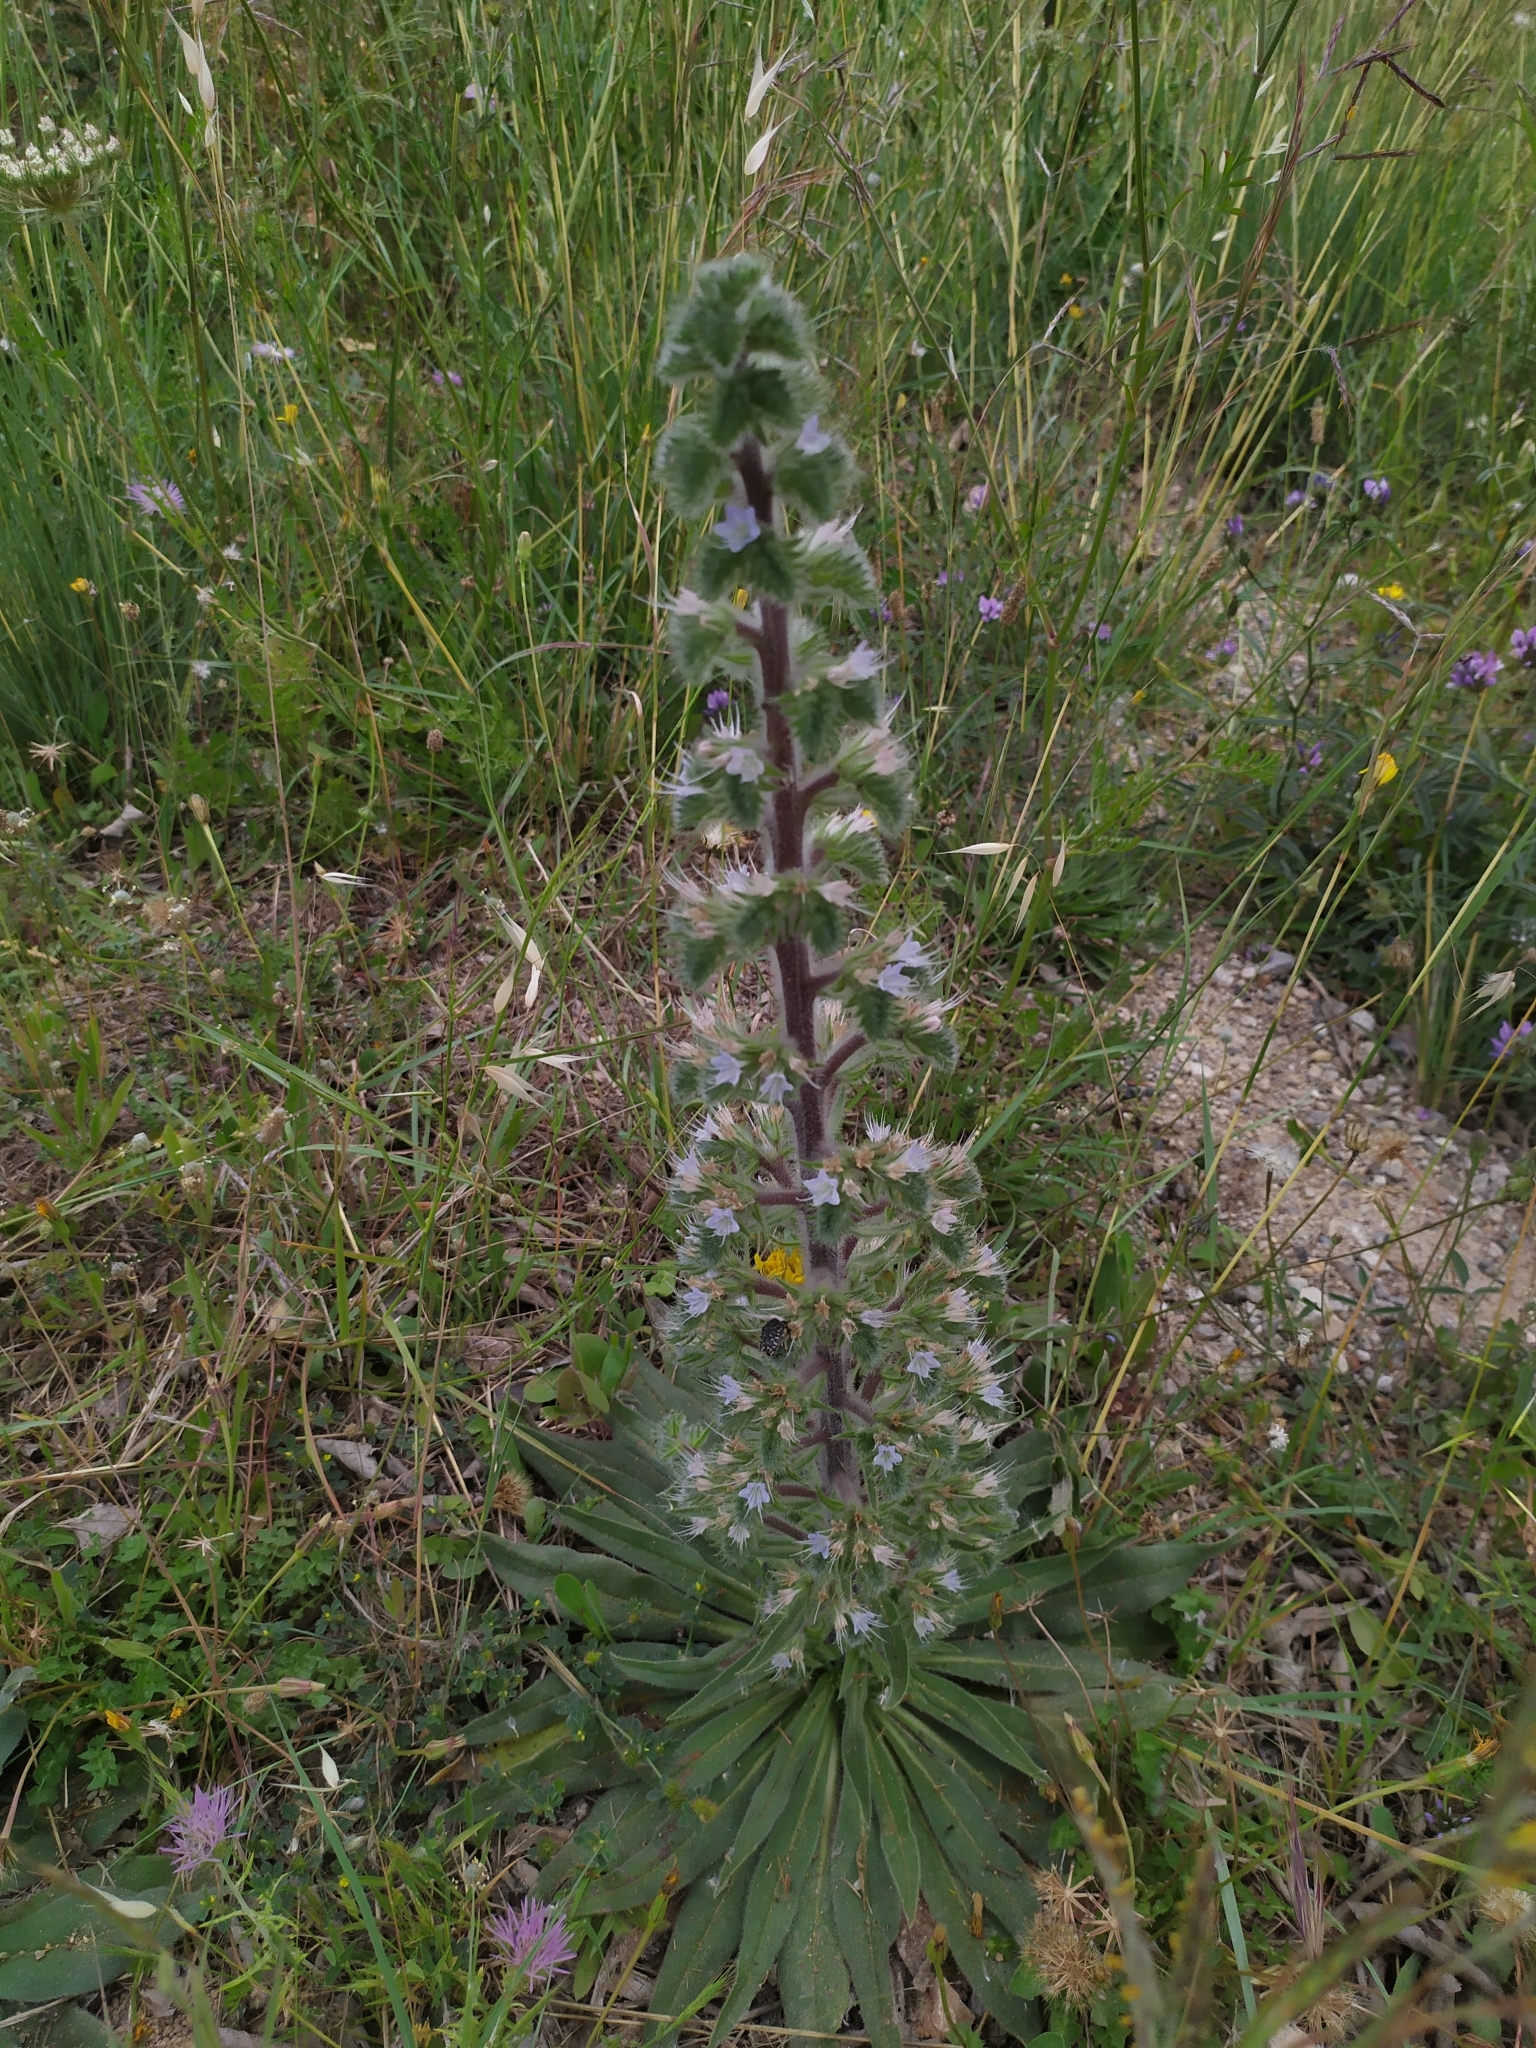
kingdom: Plantae
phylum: Tracheophyta
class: Magnoliopsida
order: Boraginales
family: Boraginaceae
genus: Echium
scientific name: Echium italicum
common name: Italian viper's bugloss
